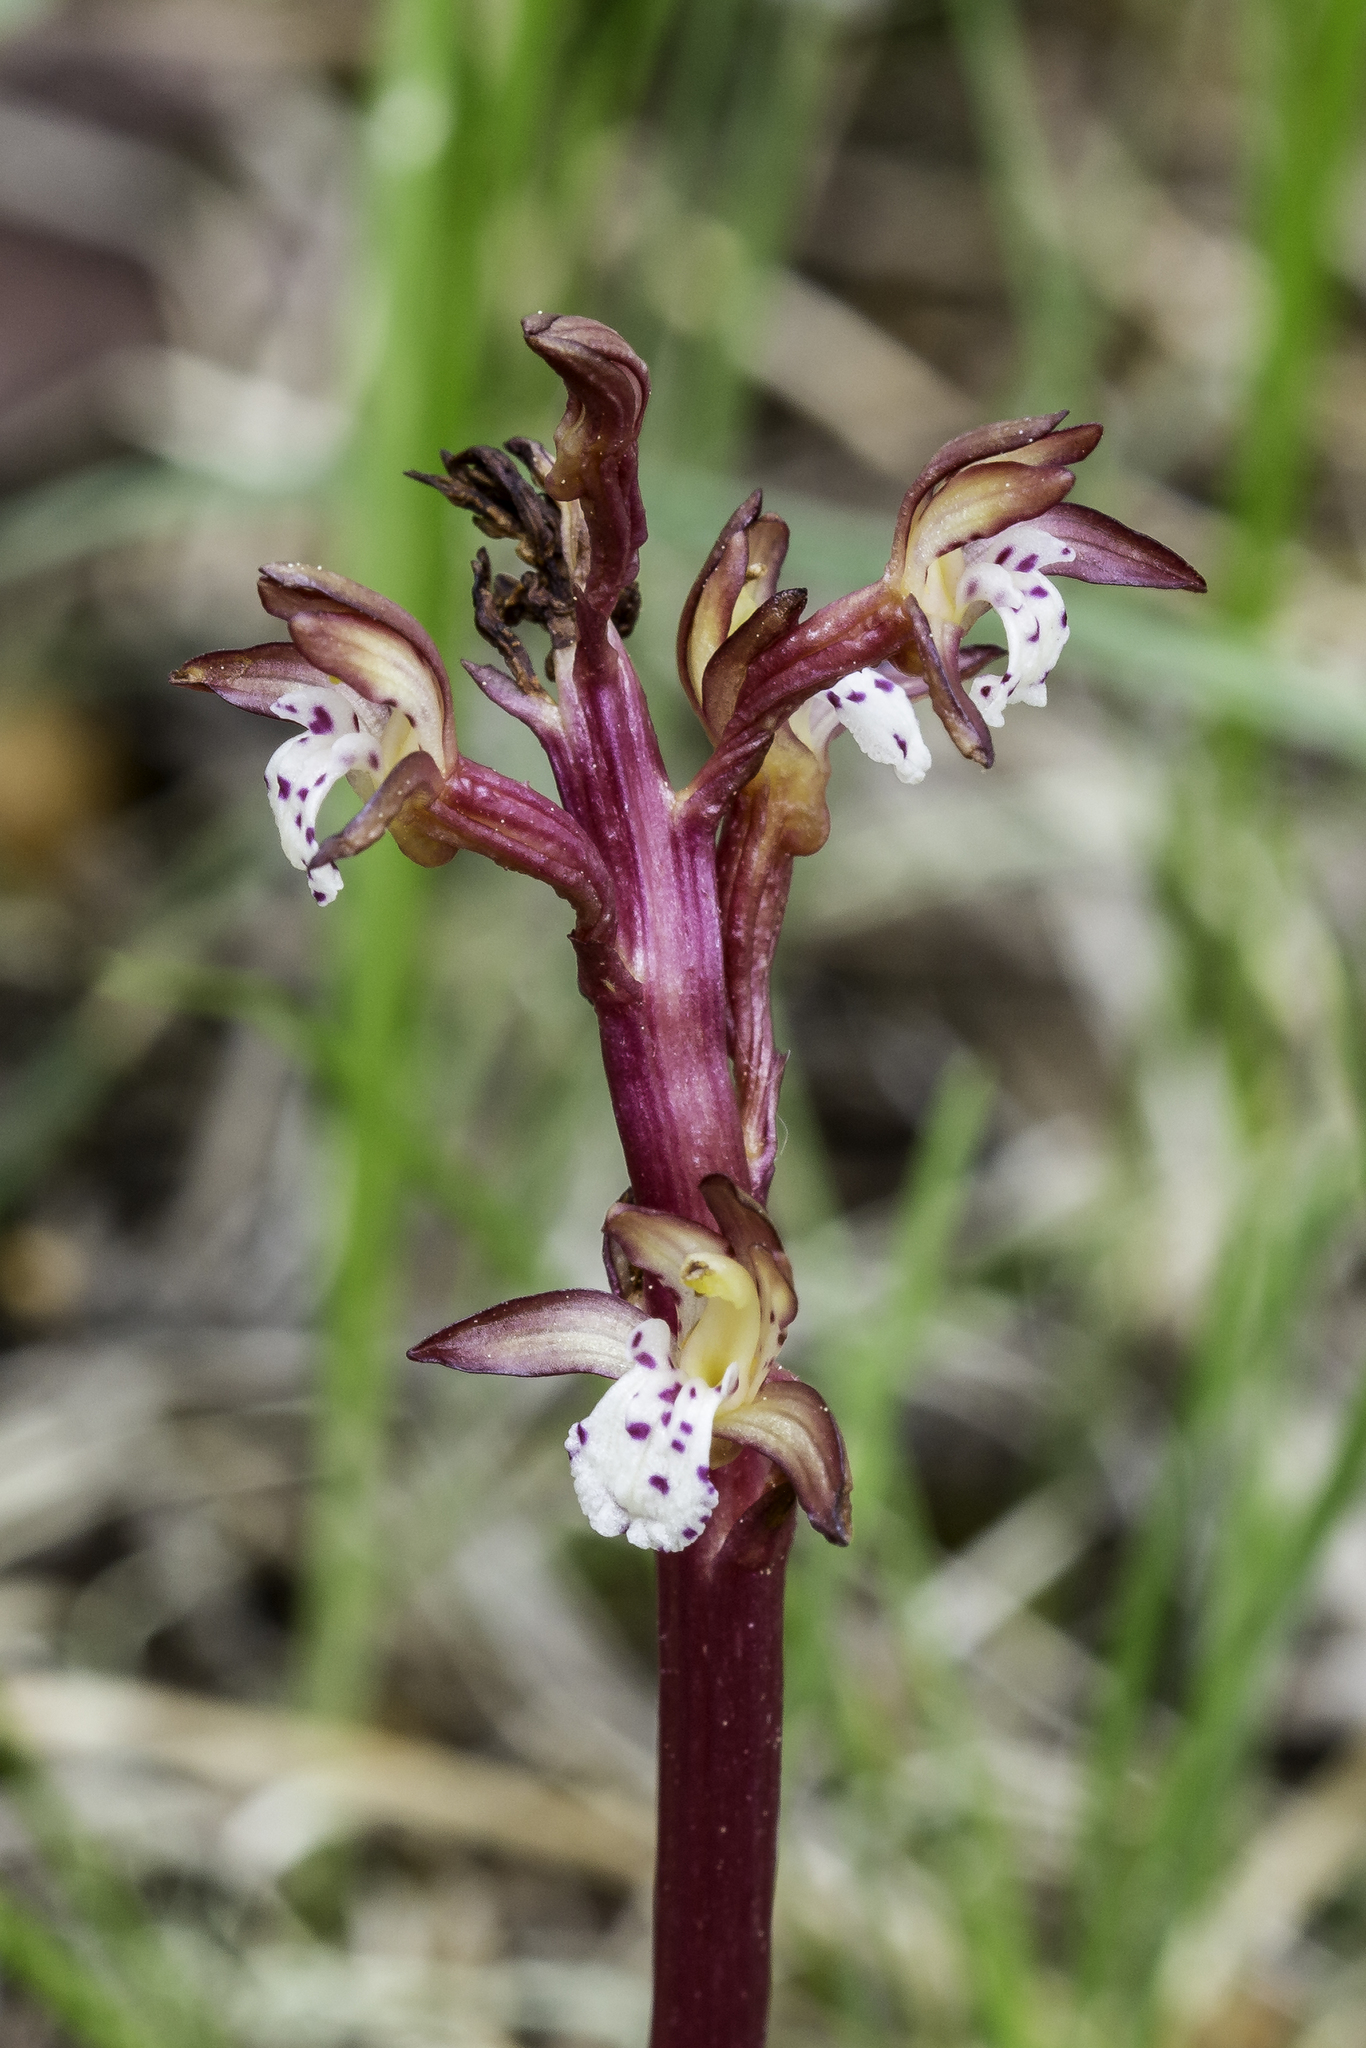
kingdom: Plantae
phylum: Tracheophyta
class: Liliopsida
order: Asparagales
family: Orchidaceae
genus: Corallorhiza
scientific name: Corallorhiza maculata
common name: Spotted coralroot
